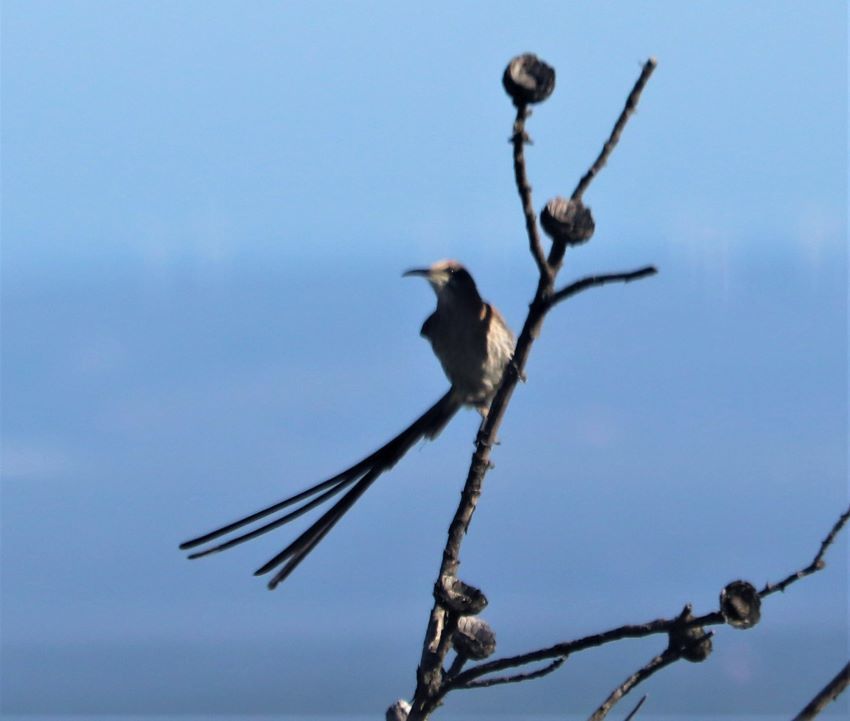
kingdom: Animalia
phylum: Chordata
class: Aves
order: Passeriformes
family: Promeropidae
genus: Promerops
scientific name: Promerops cafer
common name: Cape sugarbird
